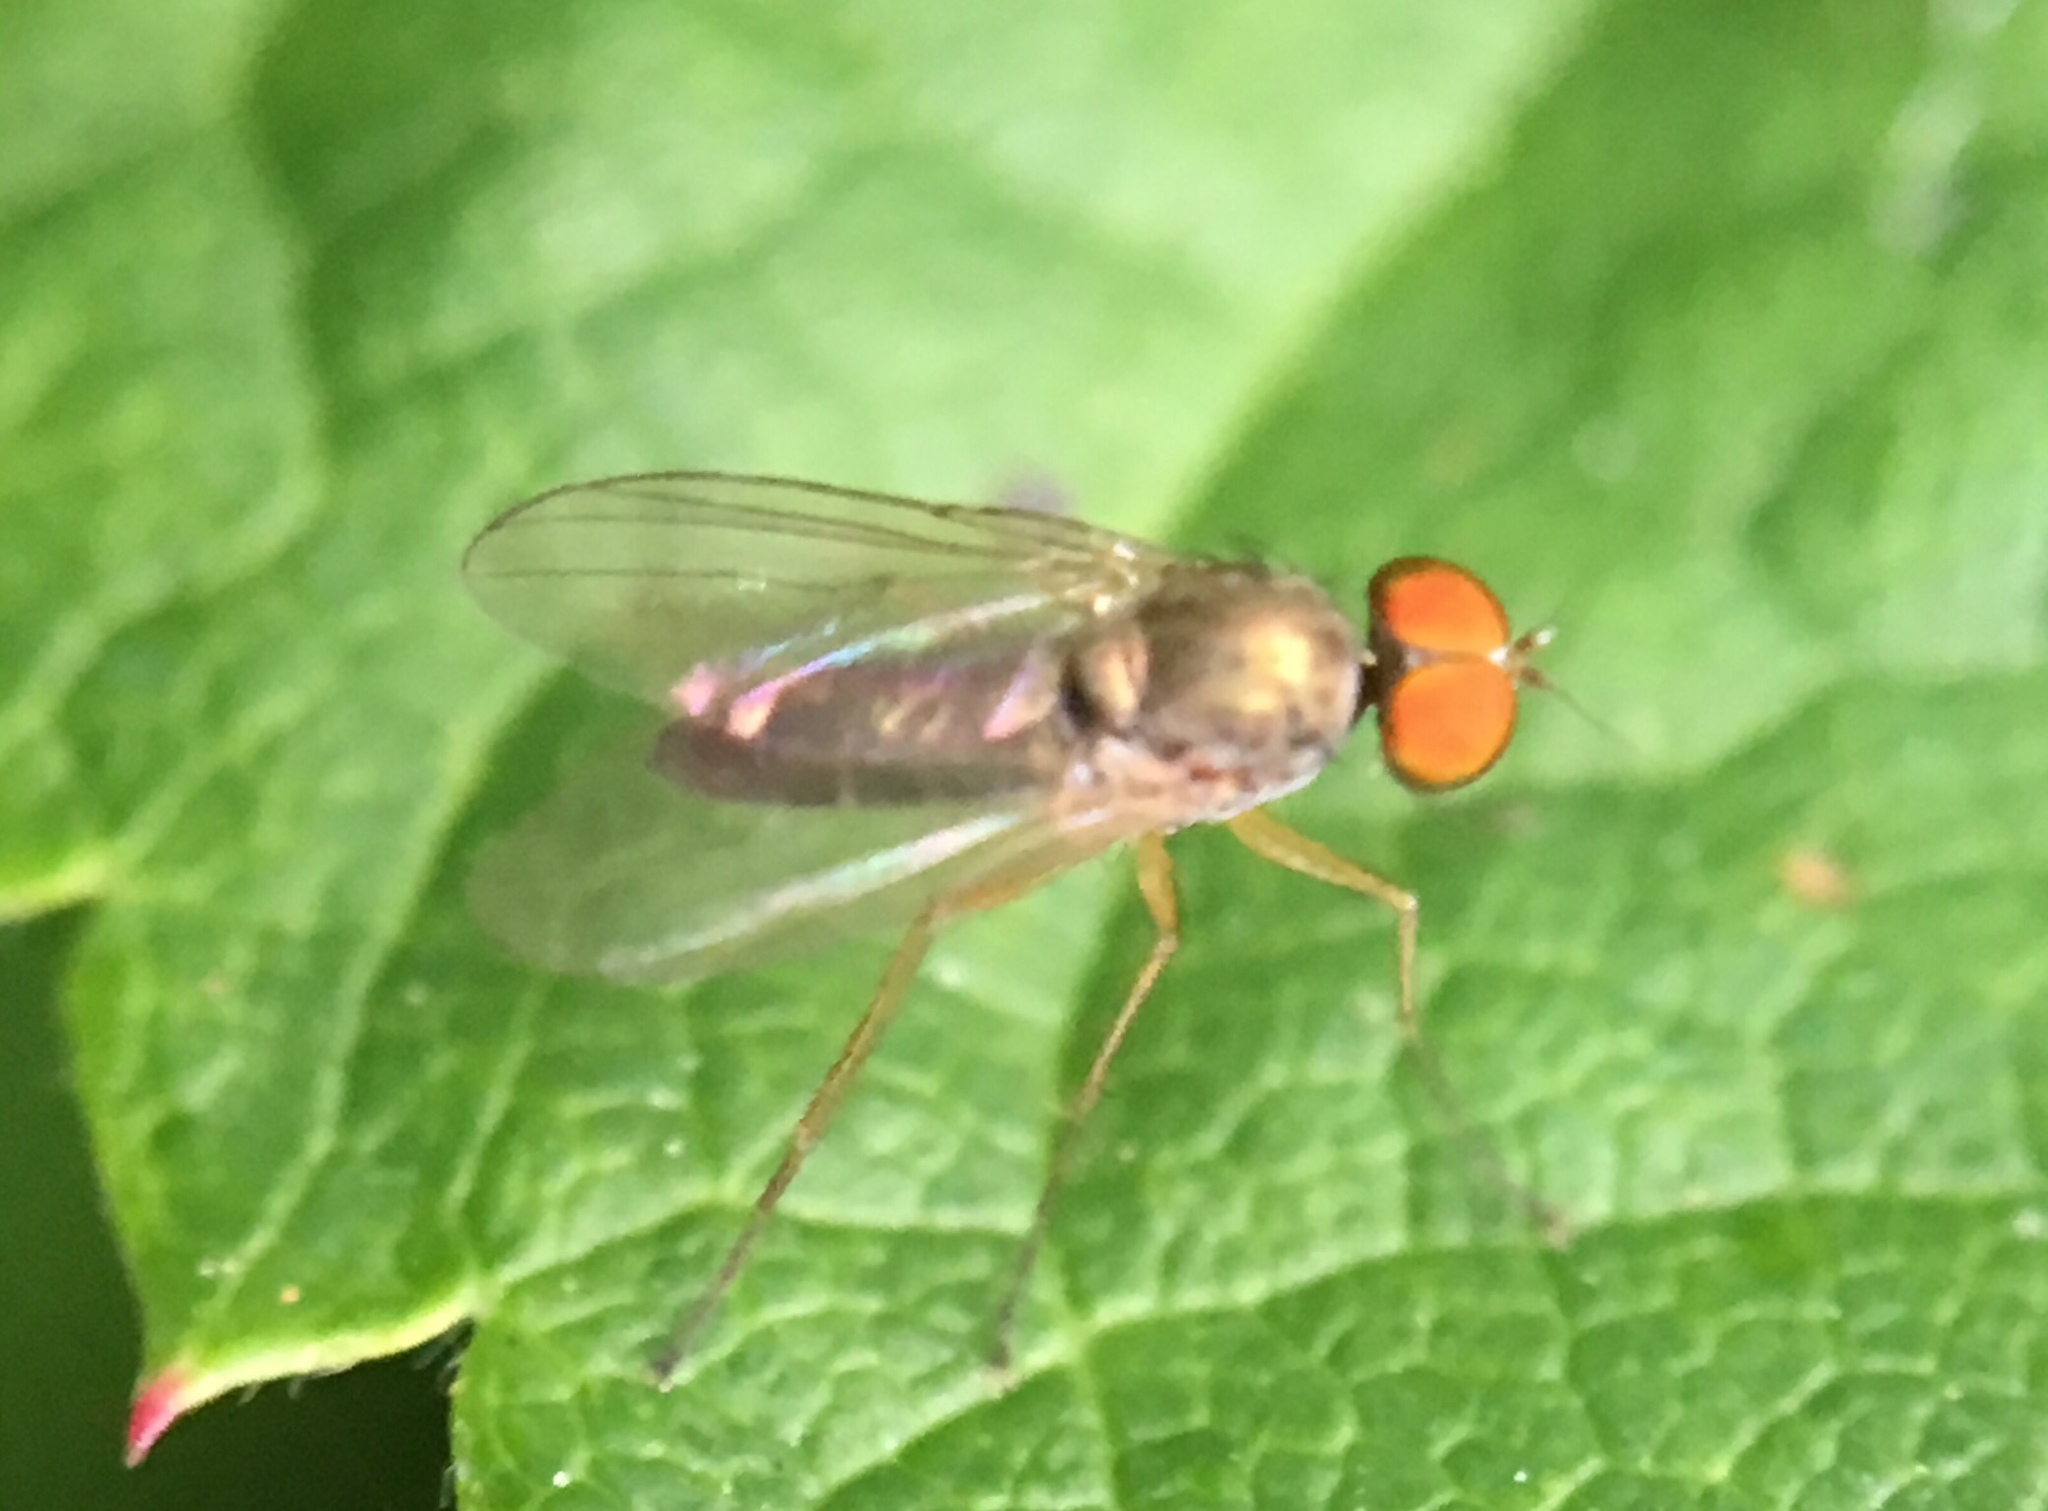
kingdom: Animalia
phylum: Arthropoda
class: Insecta
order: Diptera
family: Dolichopodidae
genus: Chrysotus
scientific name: Chrysotus
